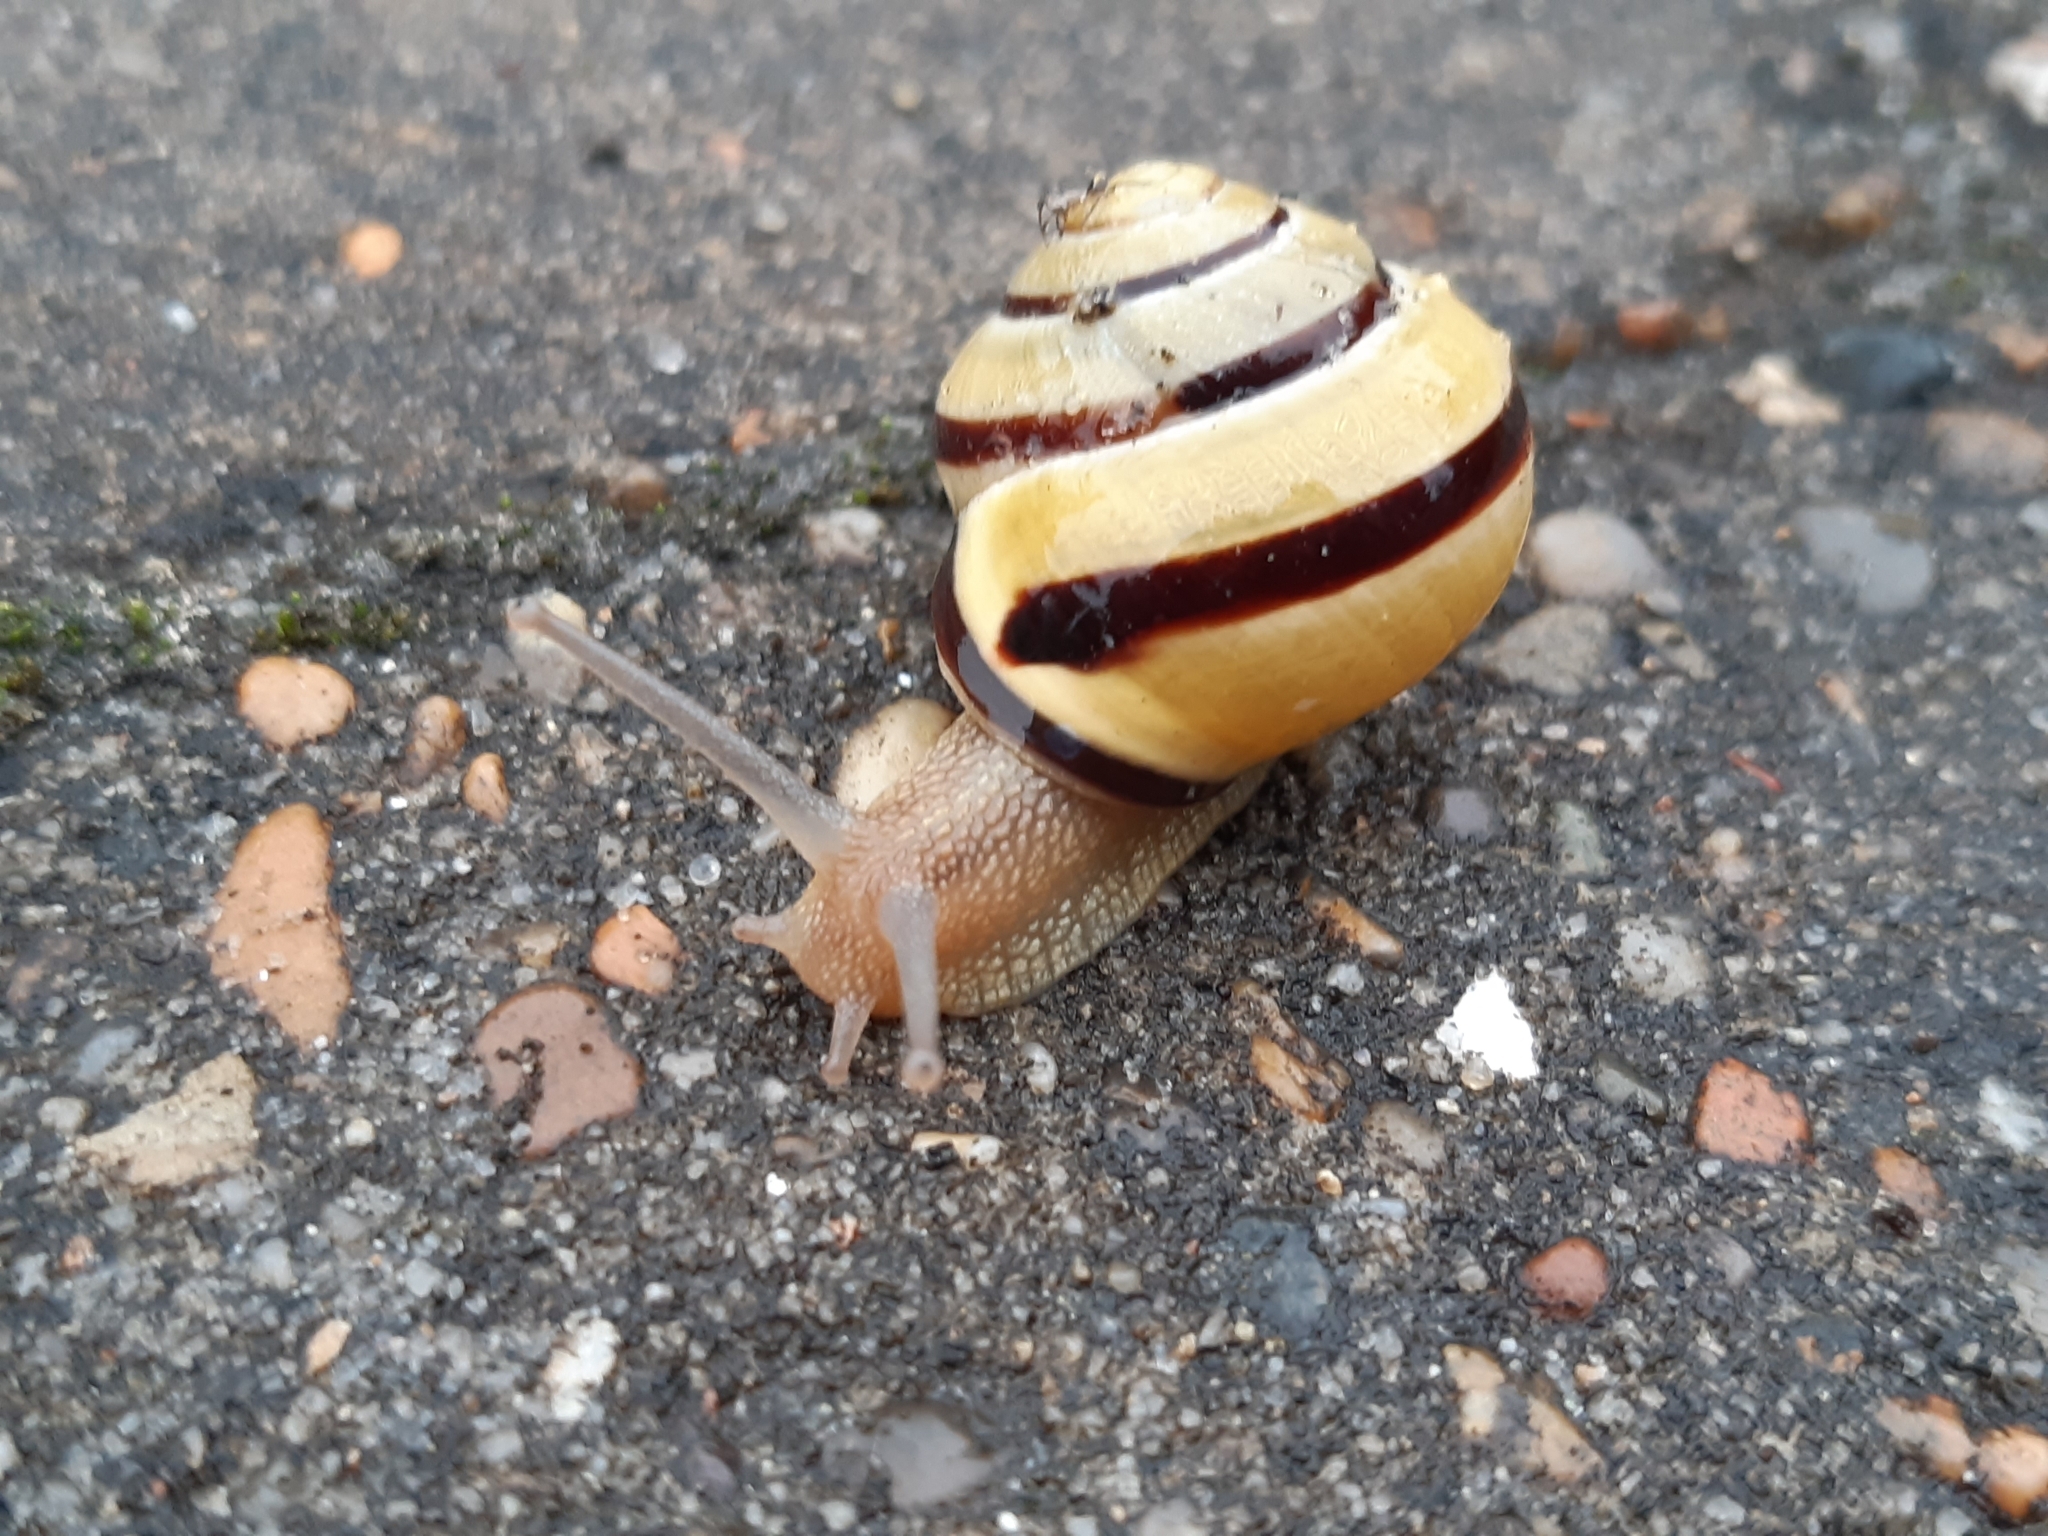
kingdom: Animalia
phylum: Mollusca
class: Gastropoda
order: Stylommatophora
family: Helicidae
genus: Cepaea
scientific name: Cepaea nemoralis
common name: Grovesnail
